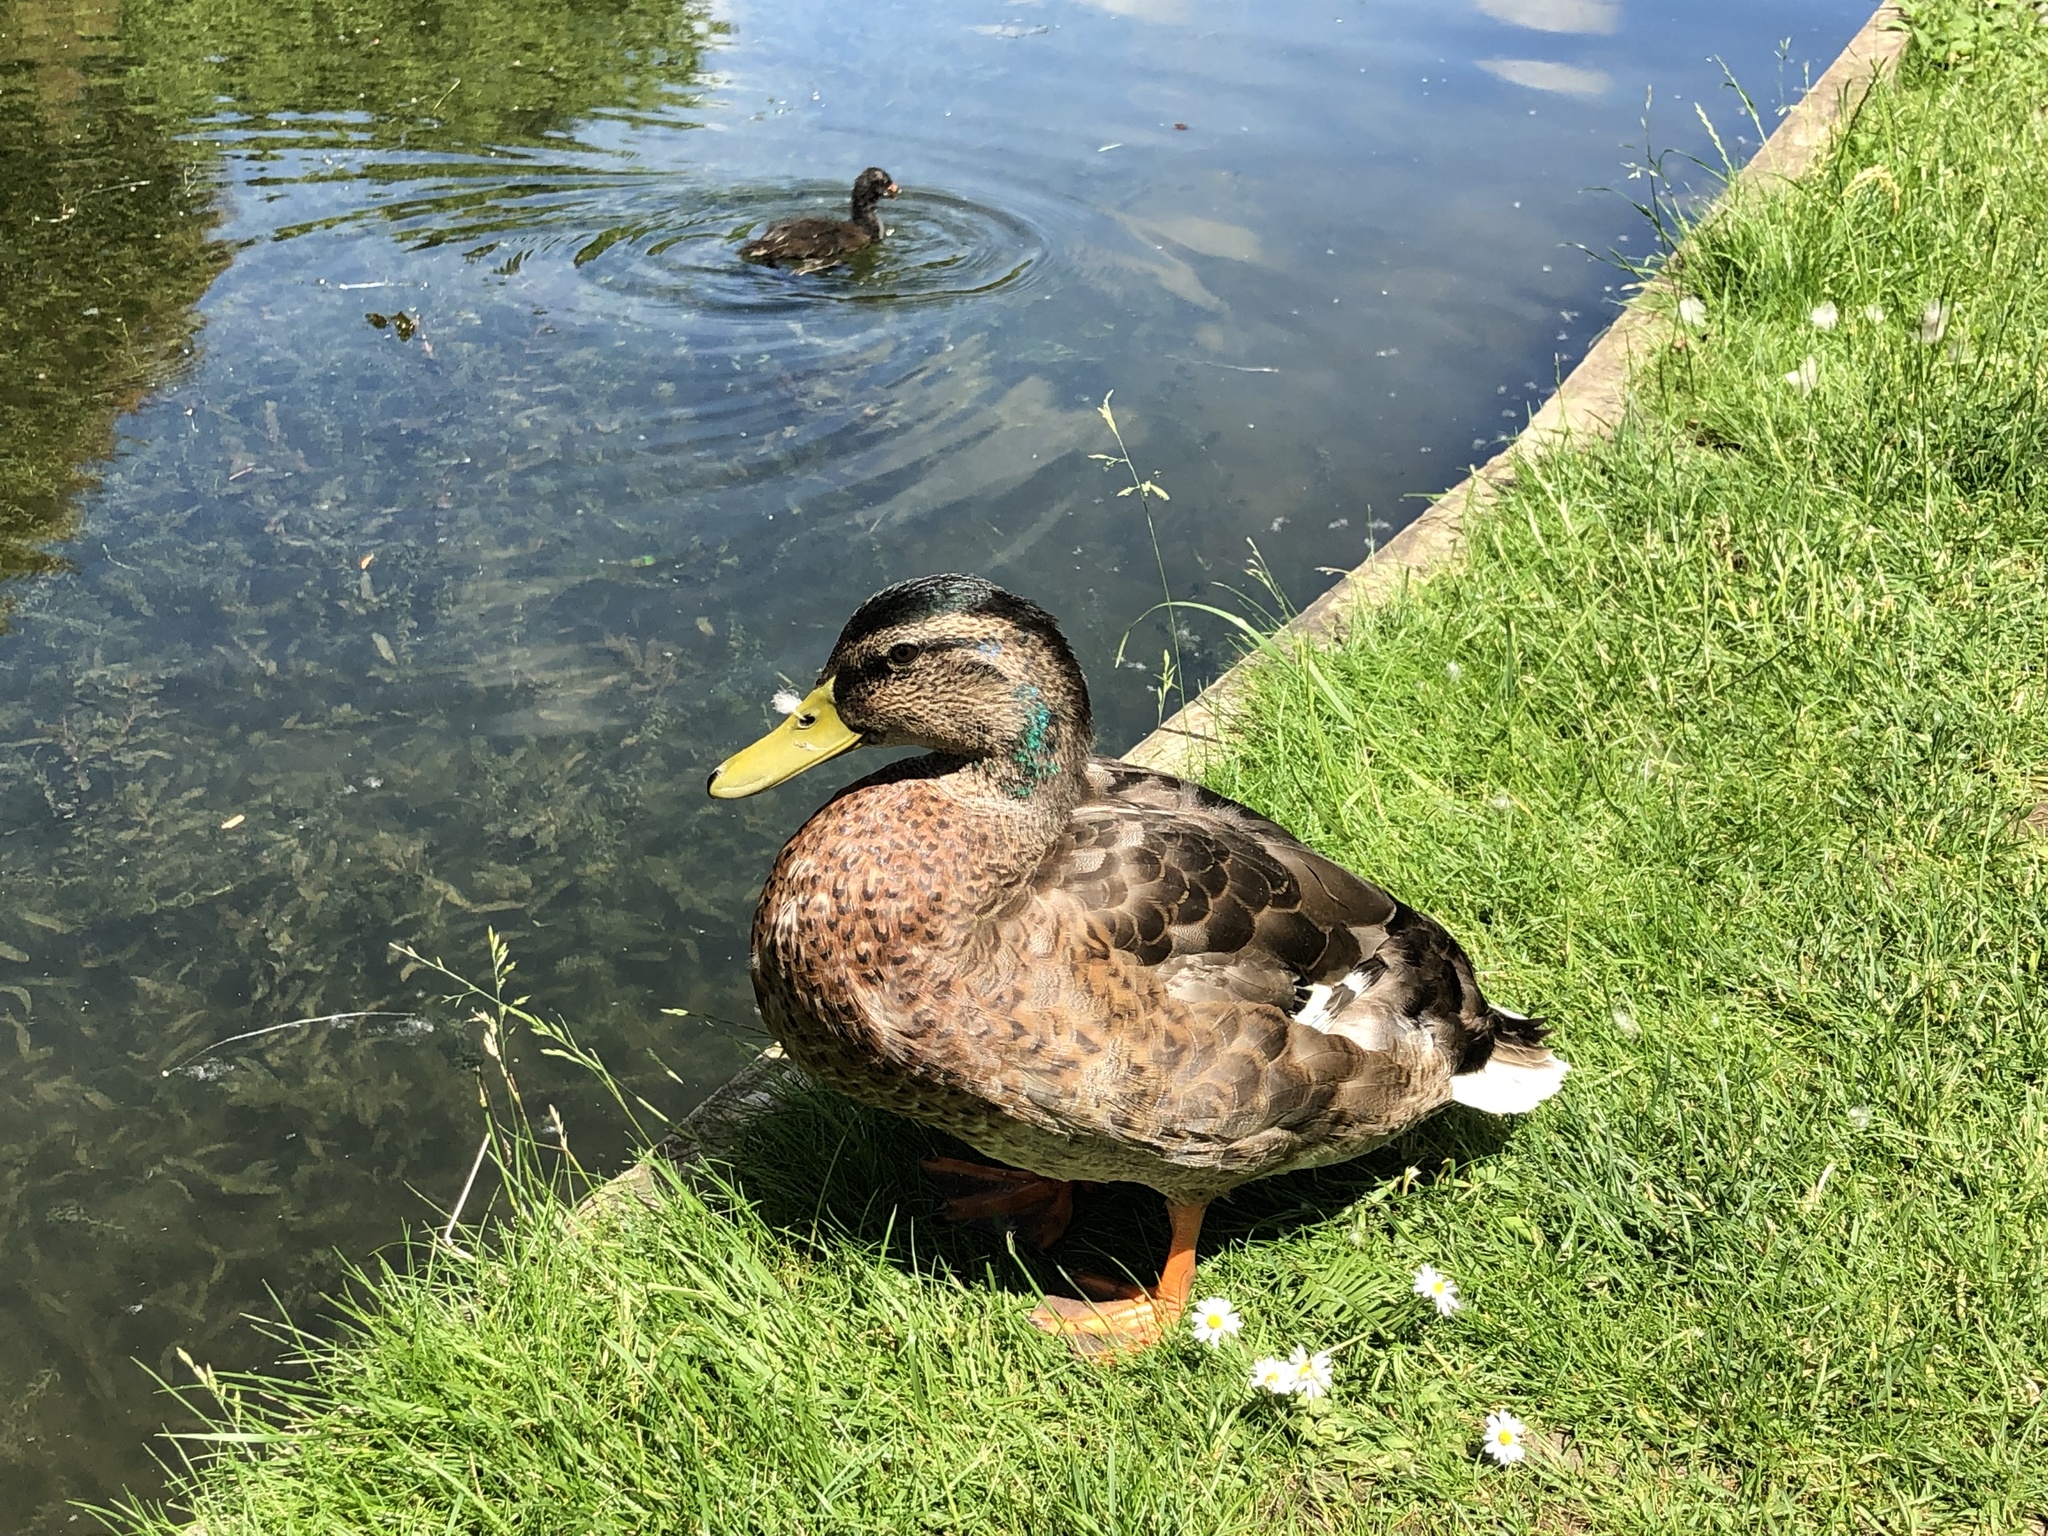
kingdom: Animalia
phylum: Chordata
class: Aves
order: Anseriformes
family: Anatidae
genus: Anas
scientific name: Anas platyrhynchos
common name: Mallard
